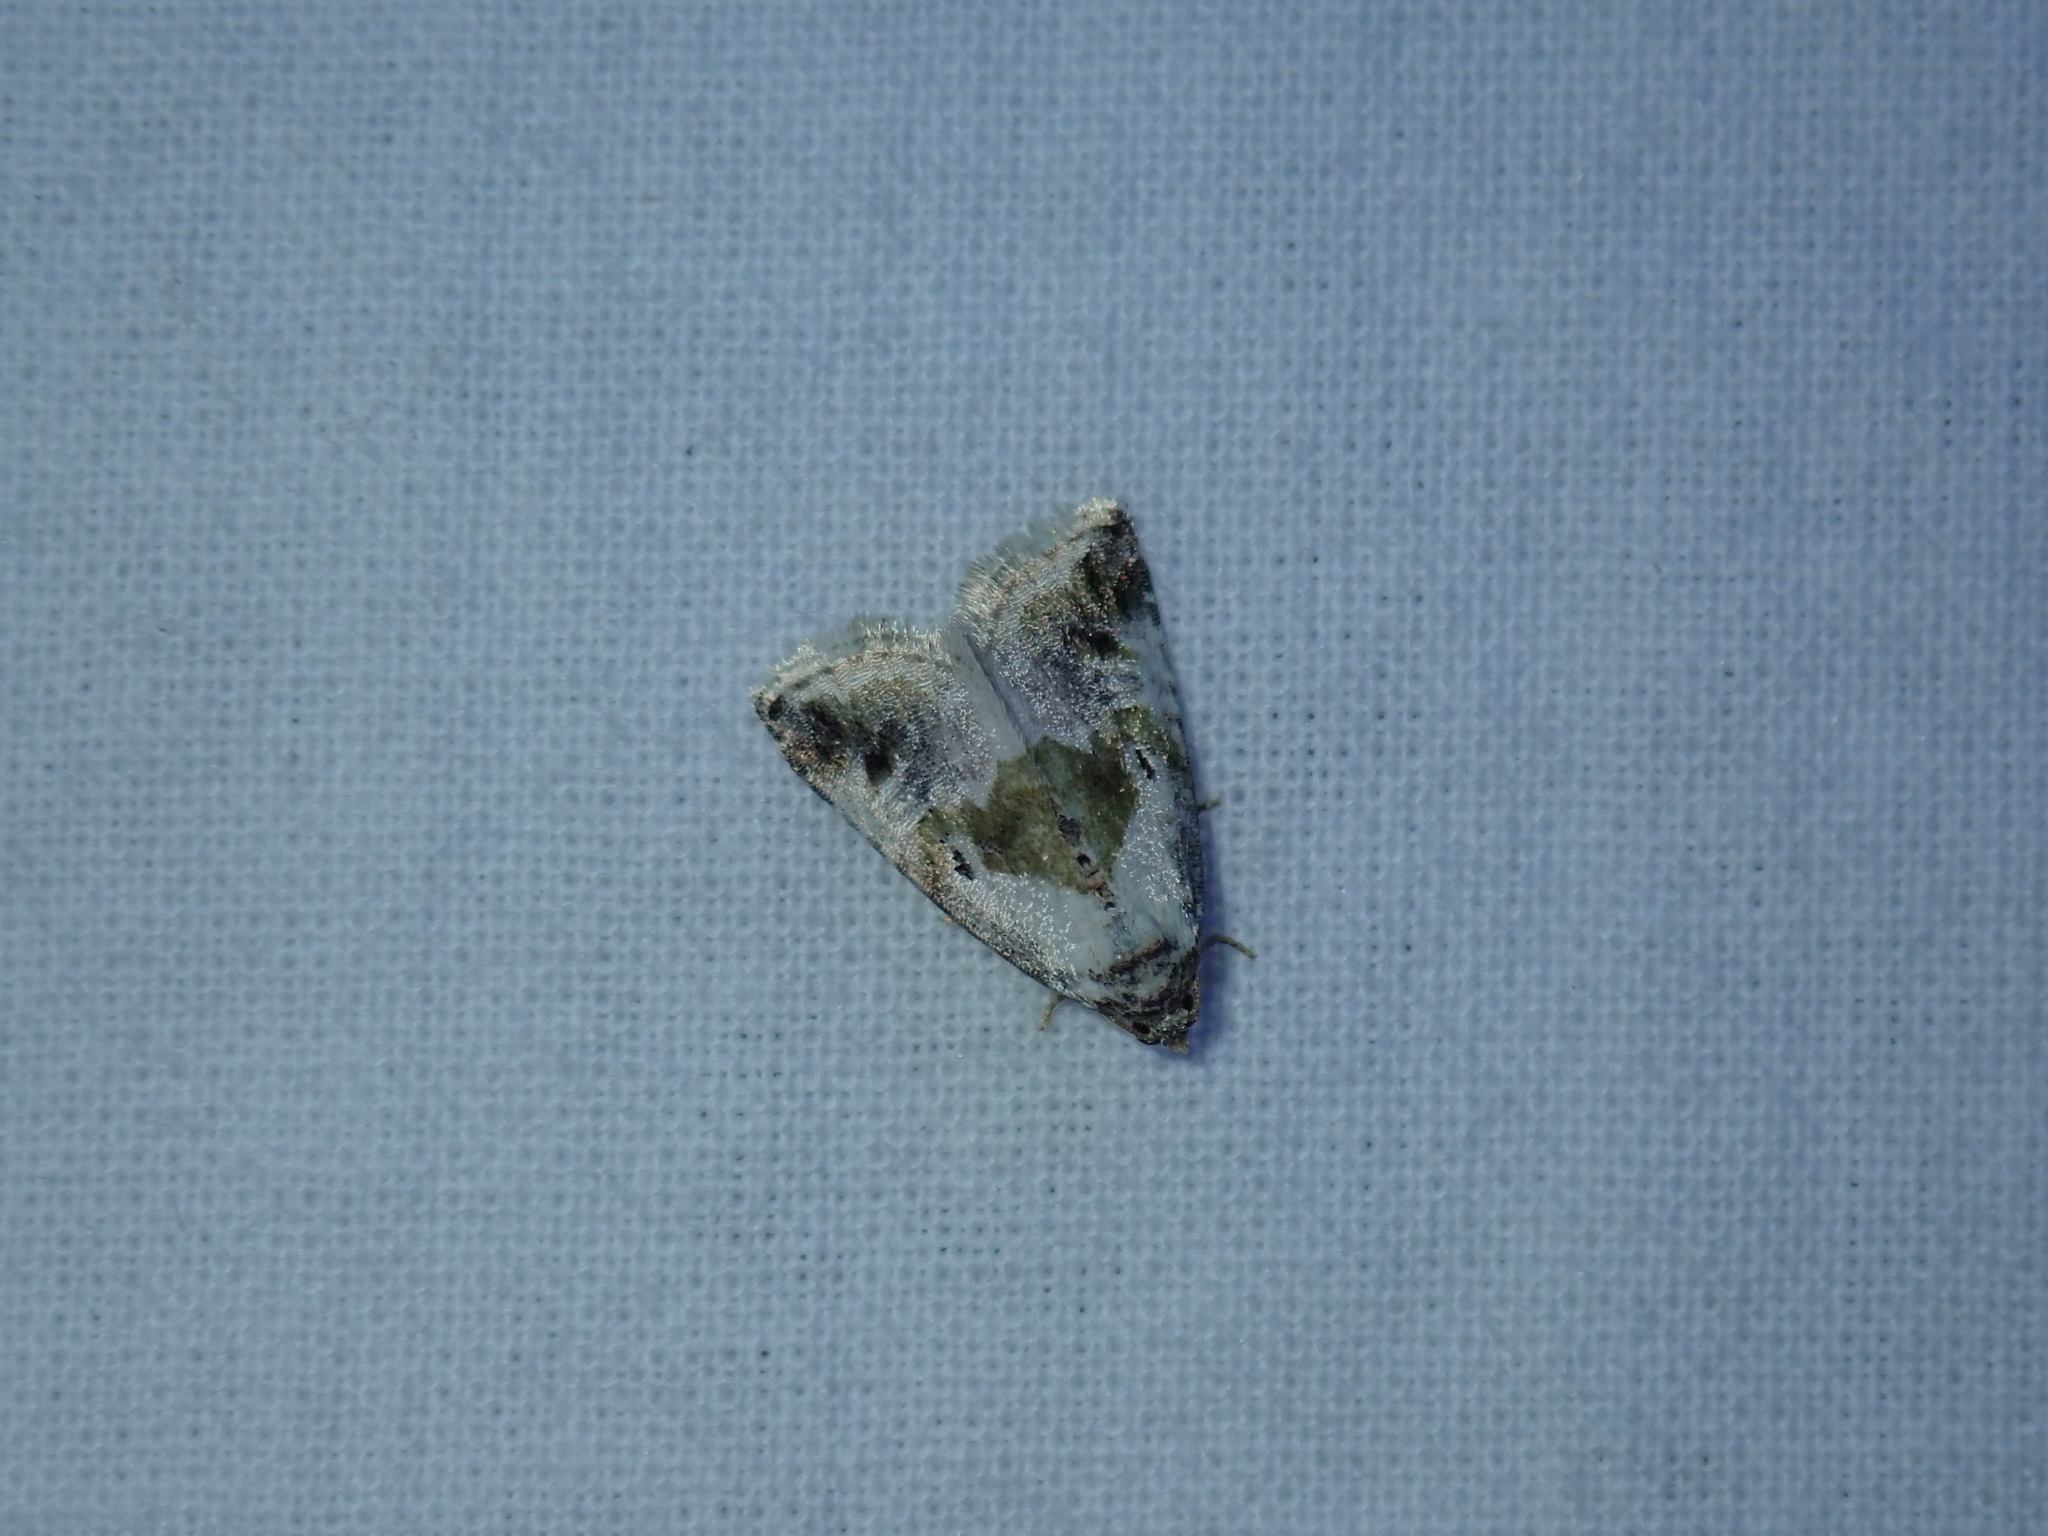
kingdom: Animalia
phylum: Arthropoda
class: Insecta
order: Lepidoptera
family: Noctuidae
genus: Maliattha
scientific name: Maliattha synochitis
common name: Black-dotted glyph
